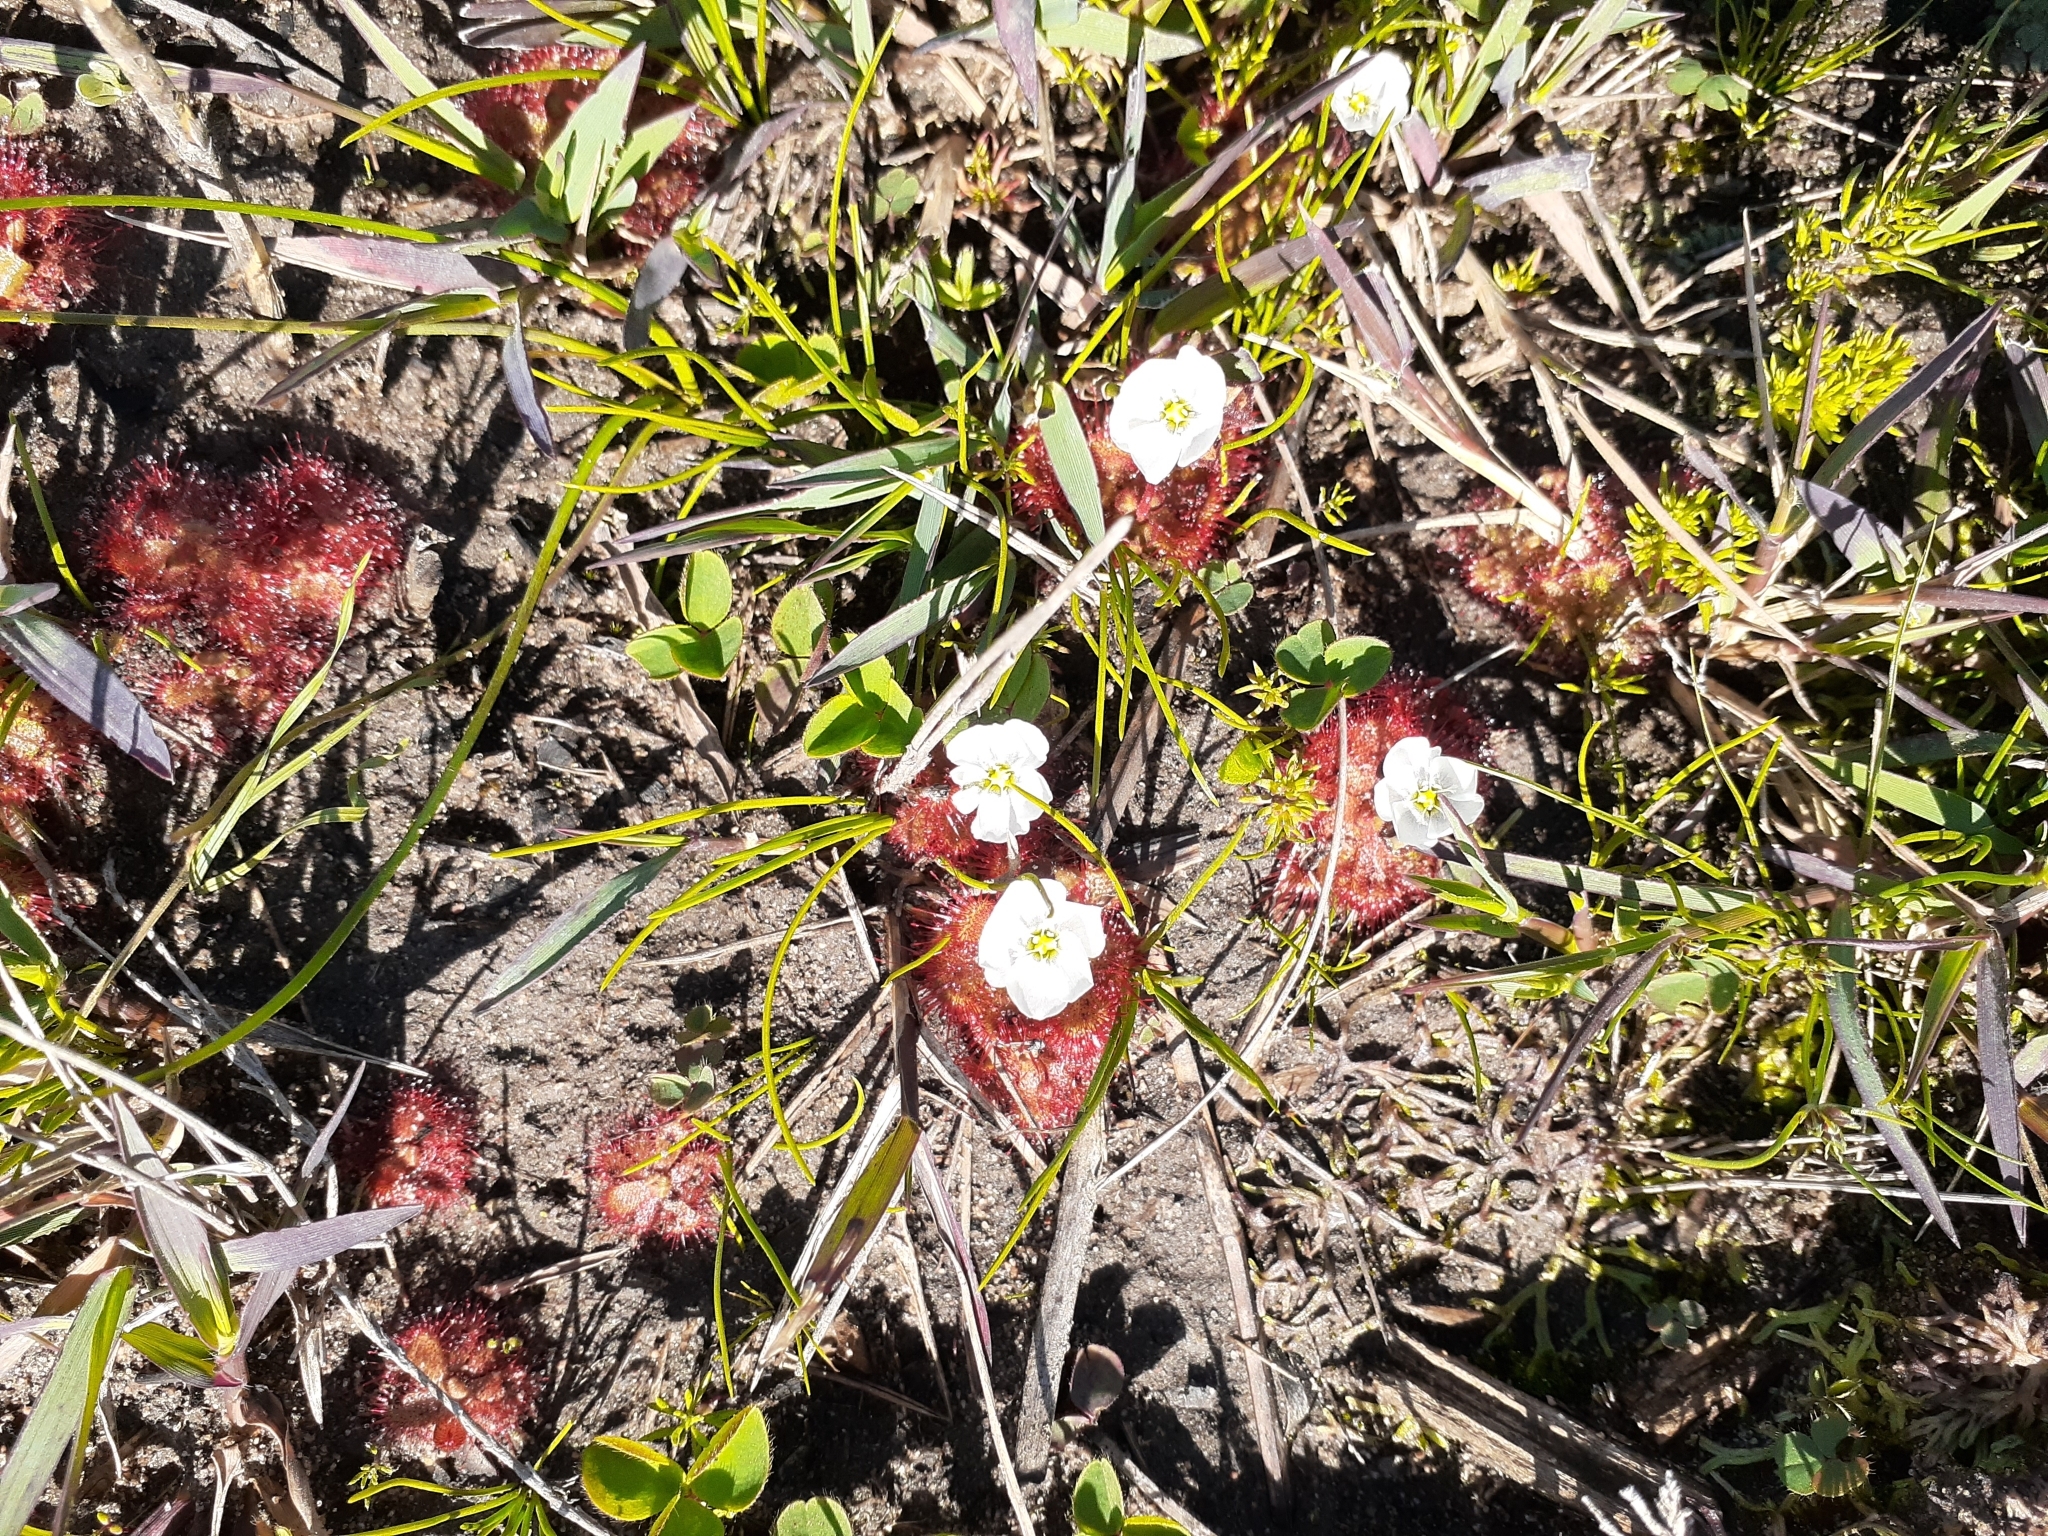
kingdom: Plantae
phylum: Tracheophyta
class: Magnoliopsida
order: Caryophyllales
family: Droseraceae
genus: Drosera
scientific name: Drosera trinervia
